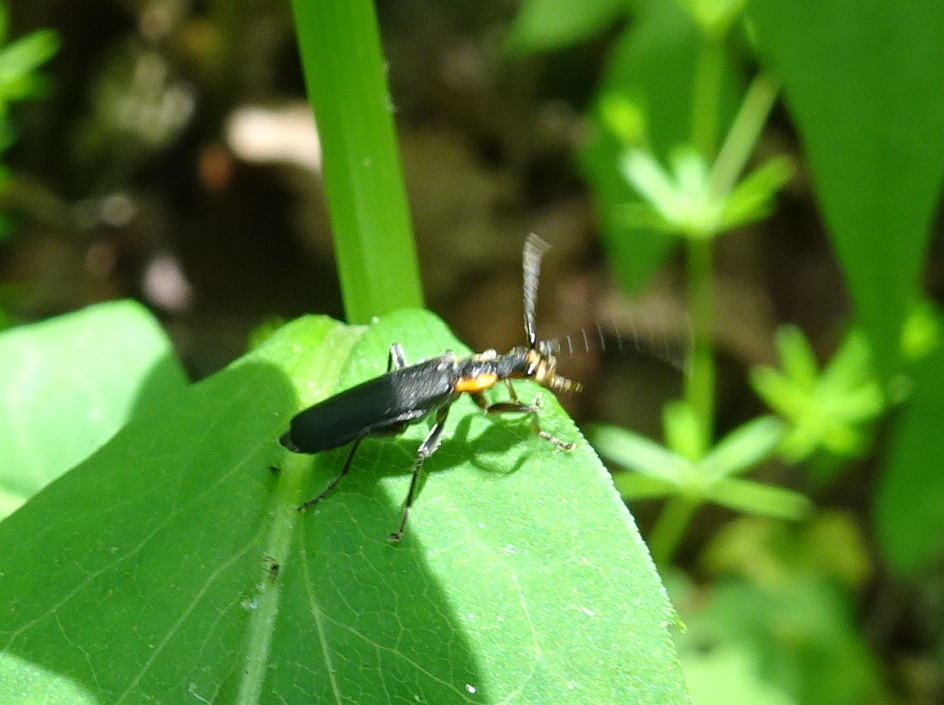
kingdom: Animalia
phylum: Arthropoda
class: Insecta
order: Coleoptera
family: Cantharidae
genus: Podabrus
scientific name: Podabrus rugosulus
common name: Wrinkled soldier beetle
